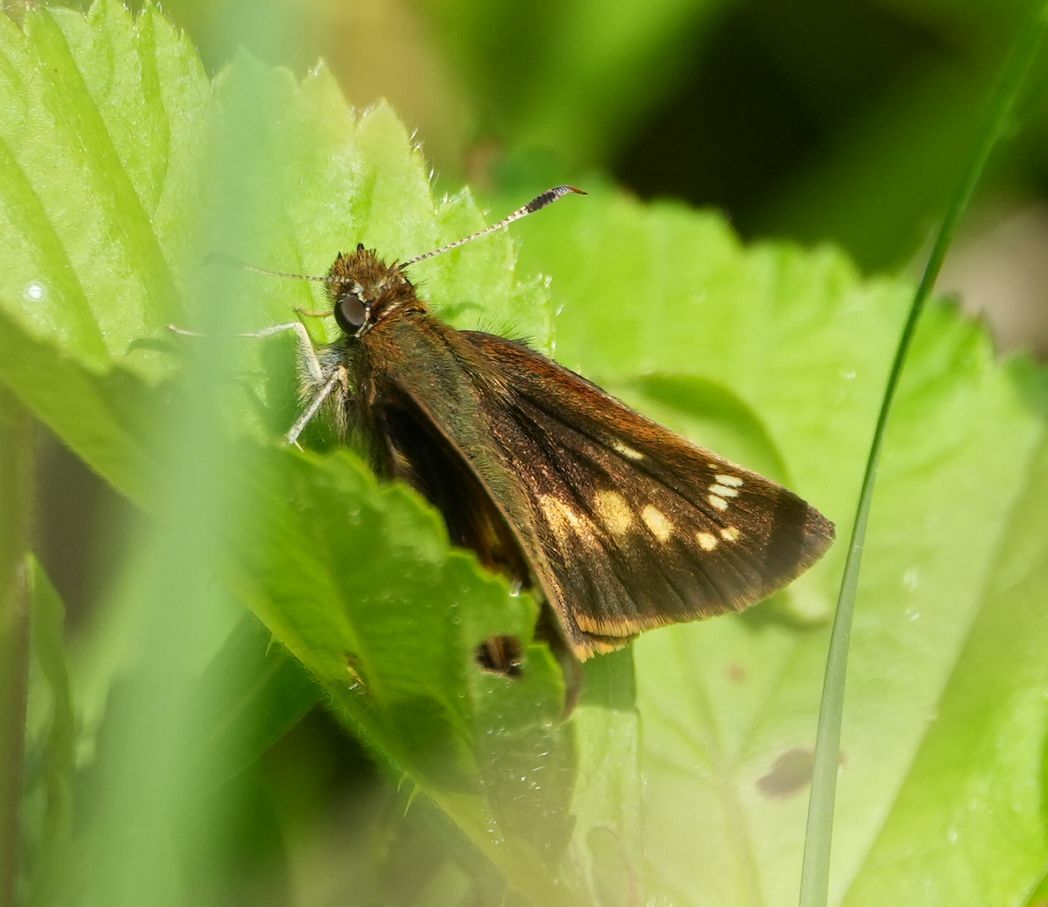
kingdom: Animalia
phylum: Arthropoda
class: Insecta
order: Lepidoptera
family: Hesperiidae
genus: Lon
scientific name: Lon hobomok
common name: Hobomok skipper
